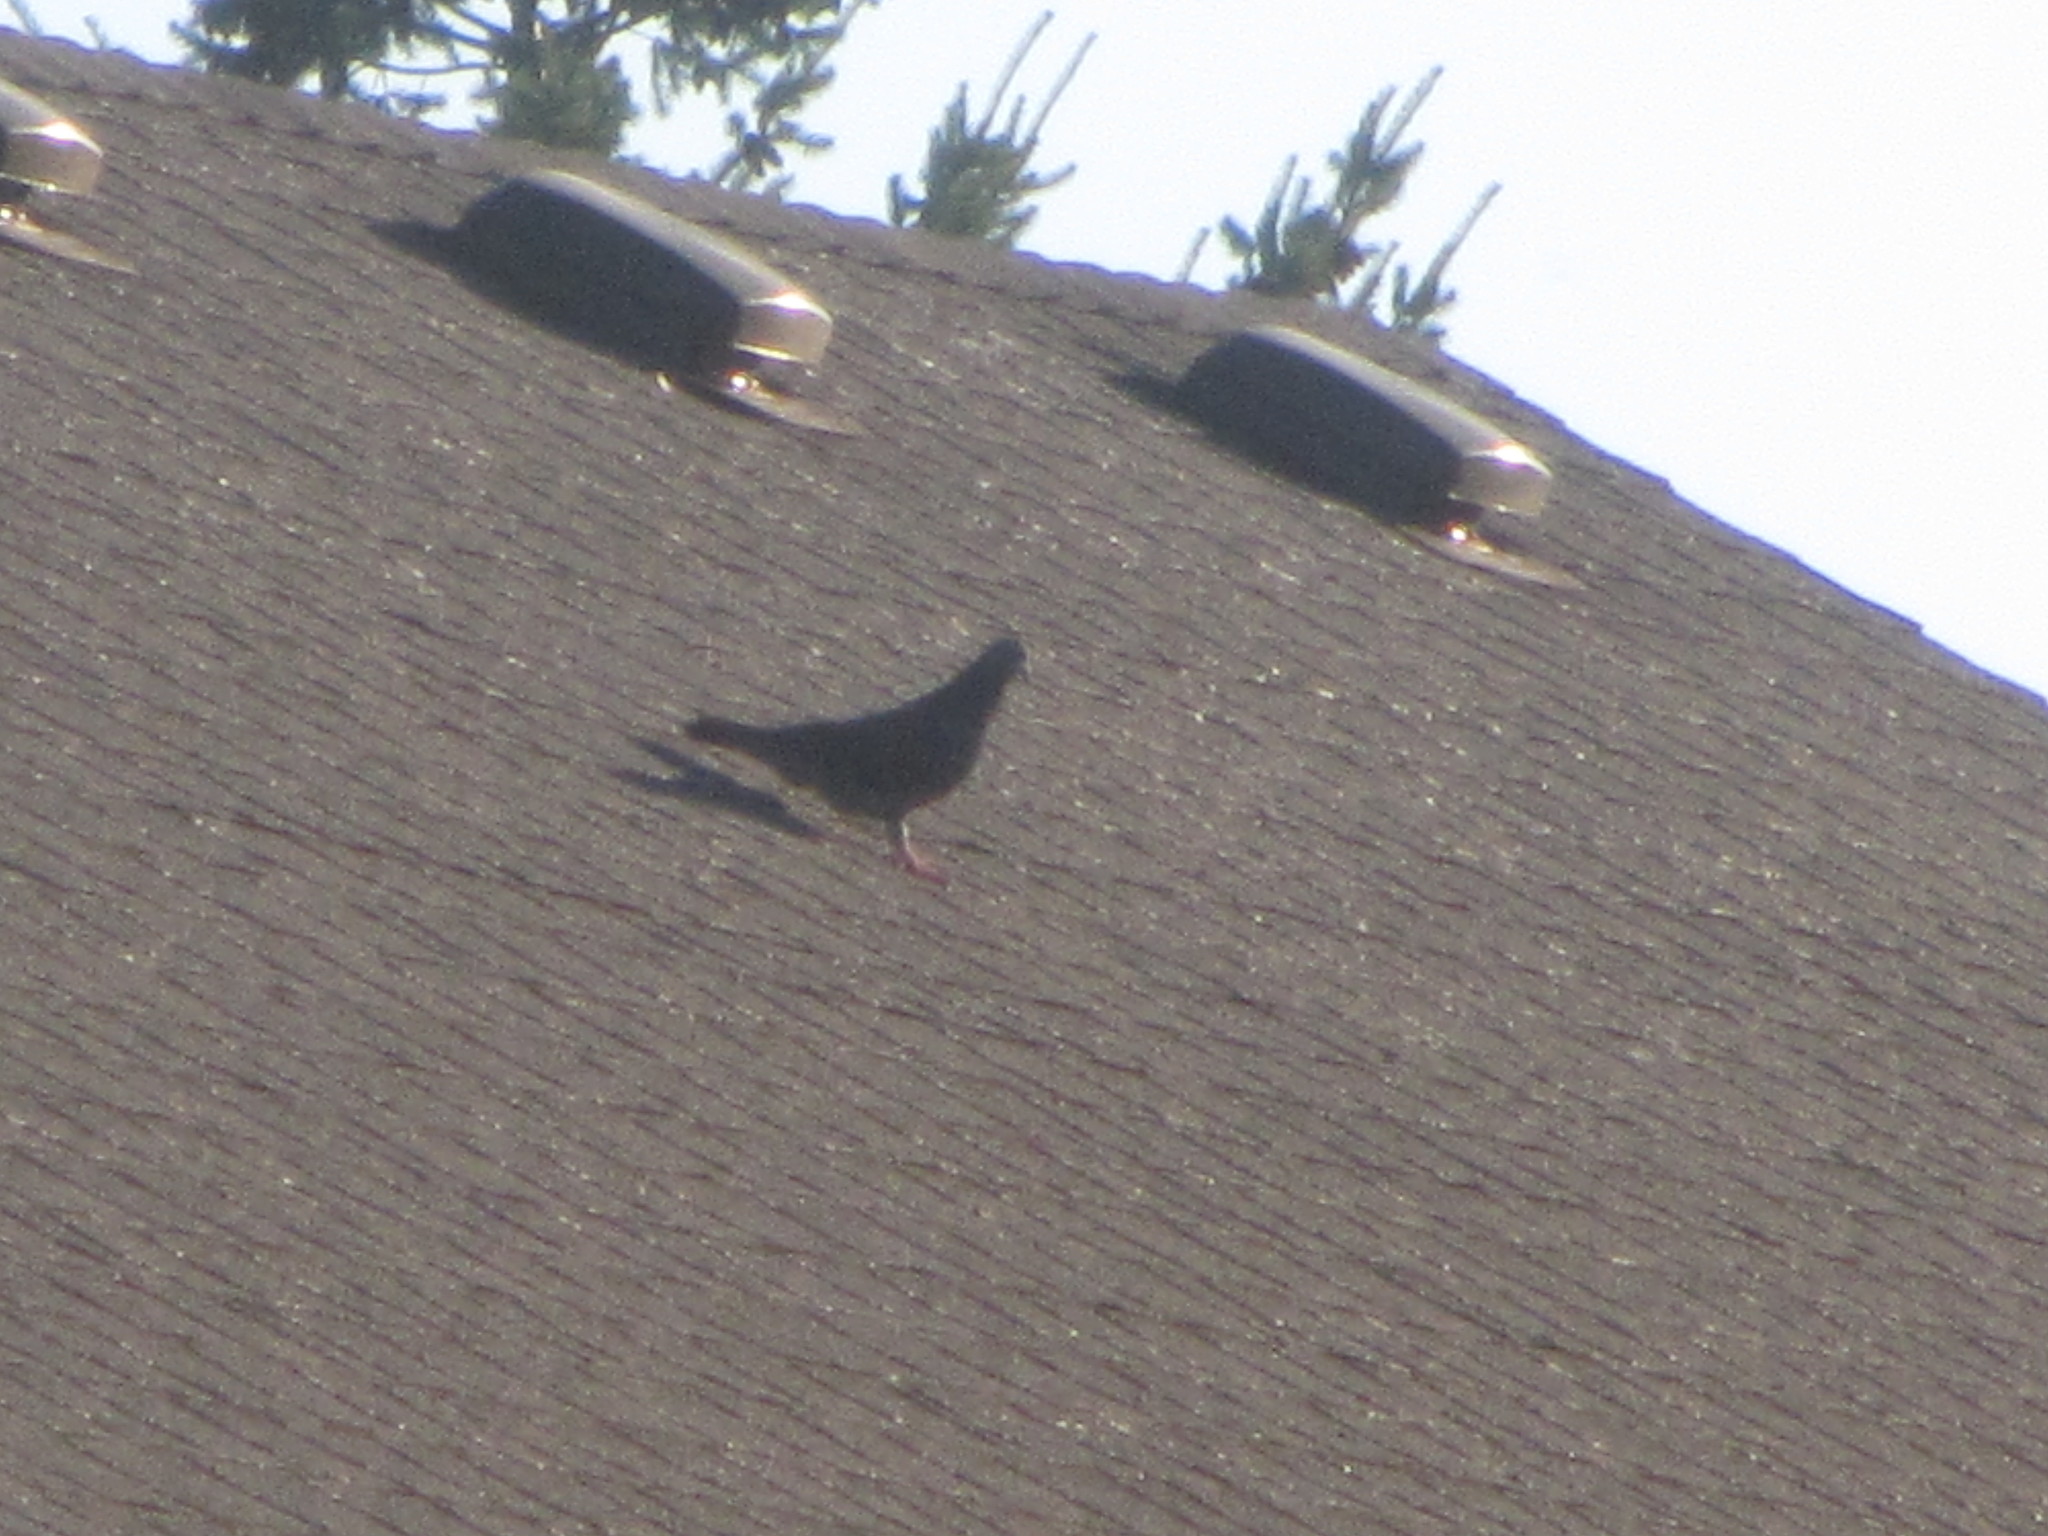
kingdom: Animalia
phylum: Chordata
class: Aves
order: Columbiformes
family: Columbidae
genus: Columba
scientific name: Columba livia
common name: Rock pigeon
